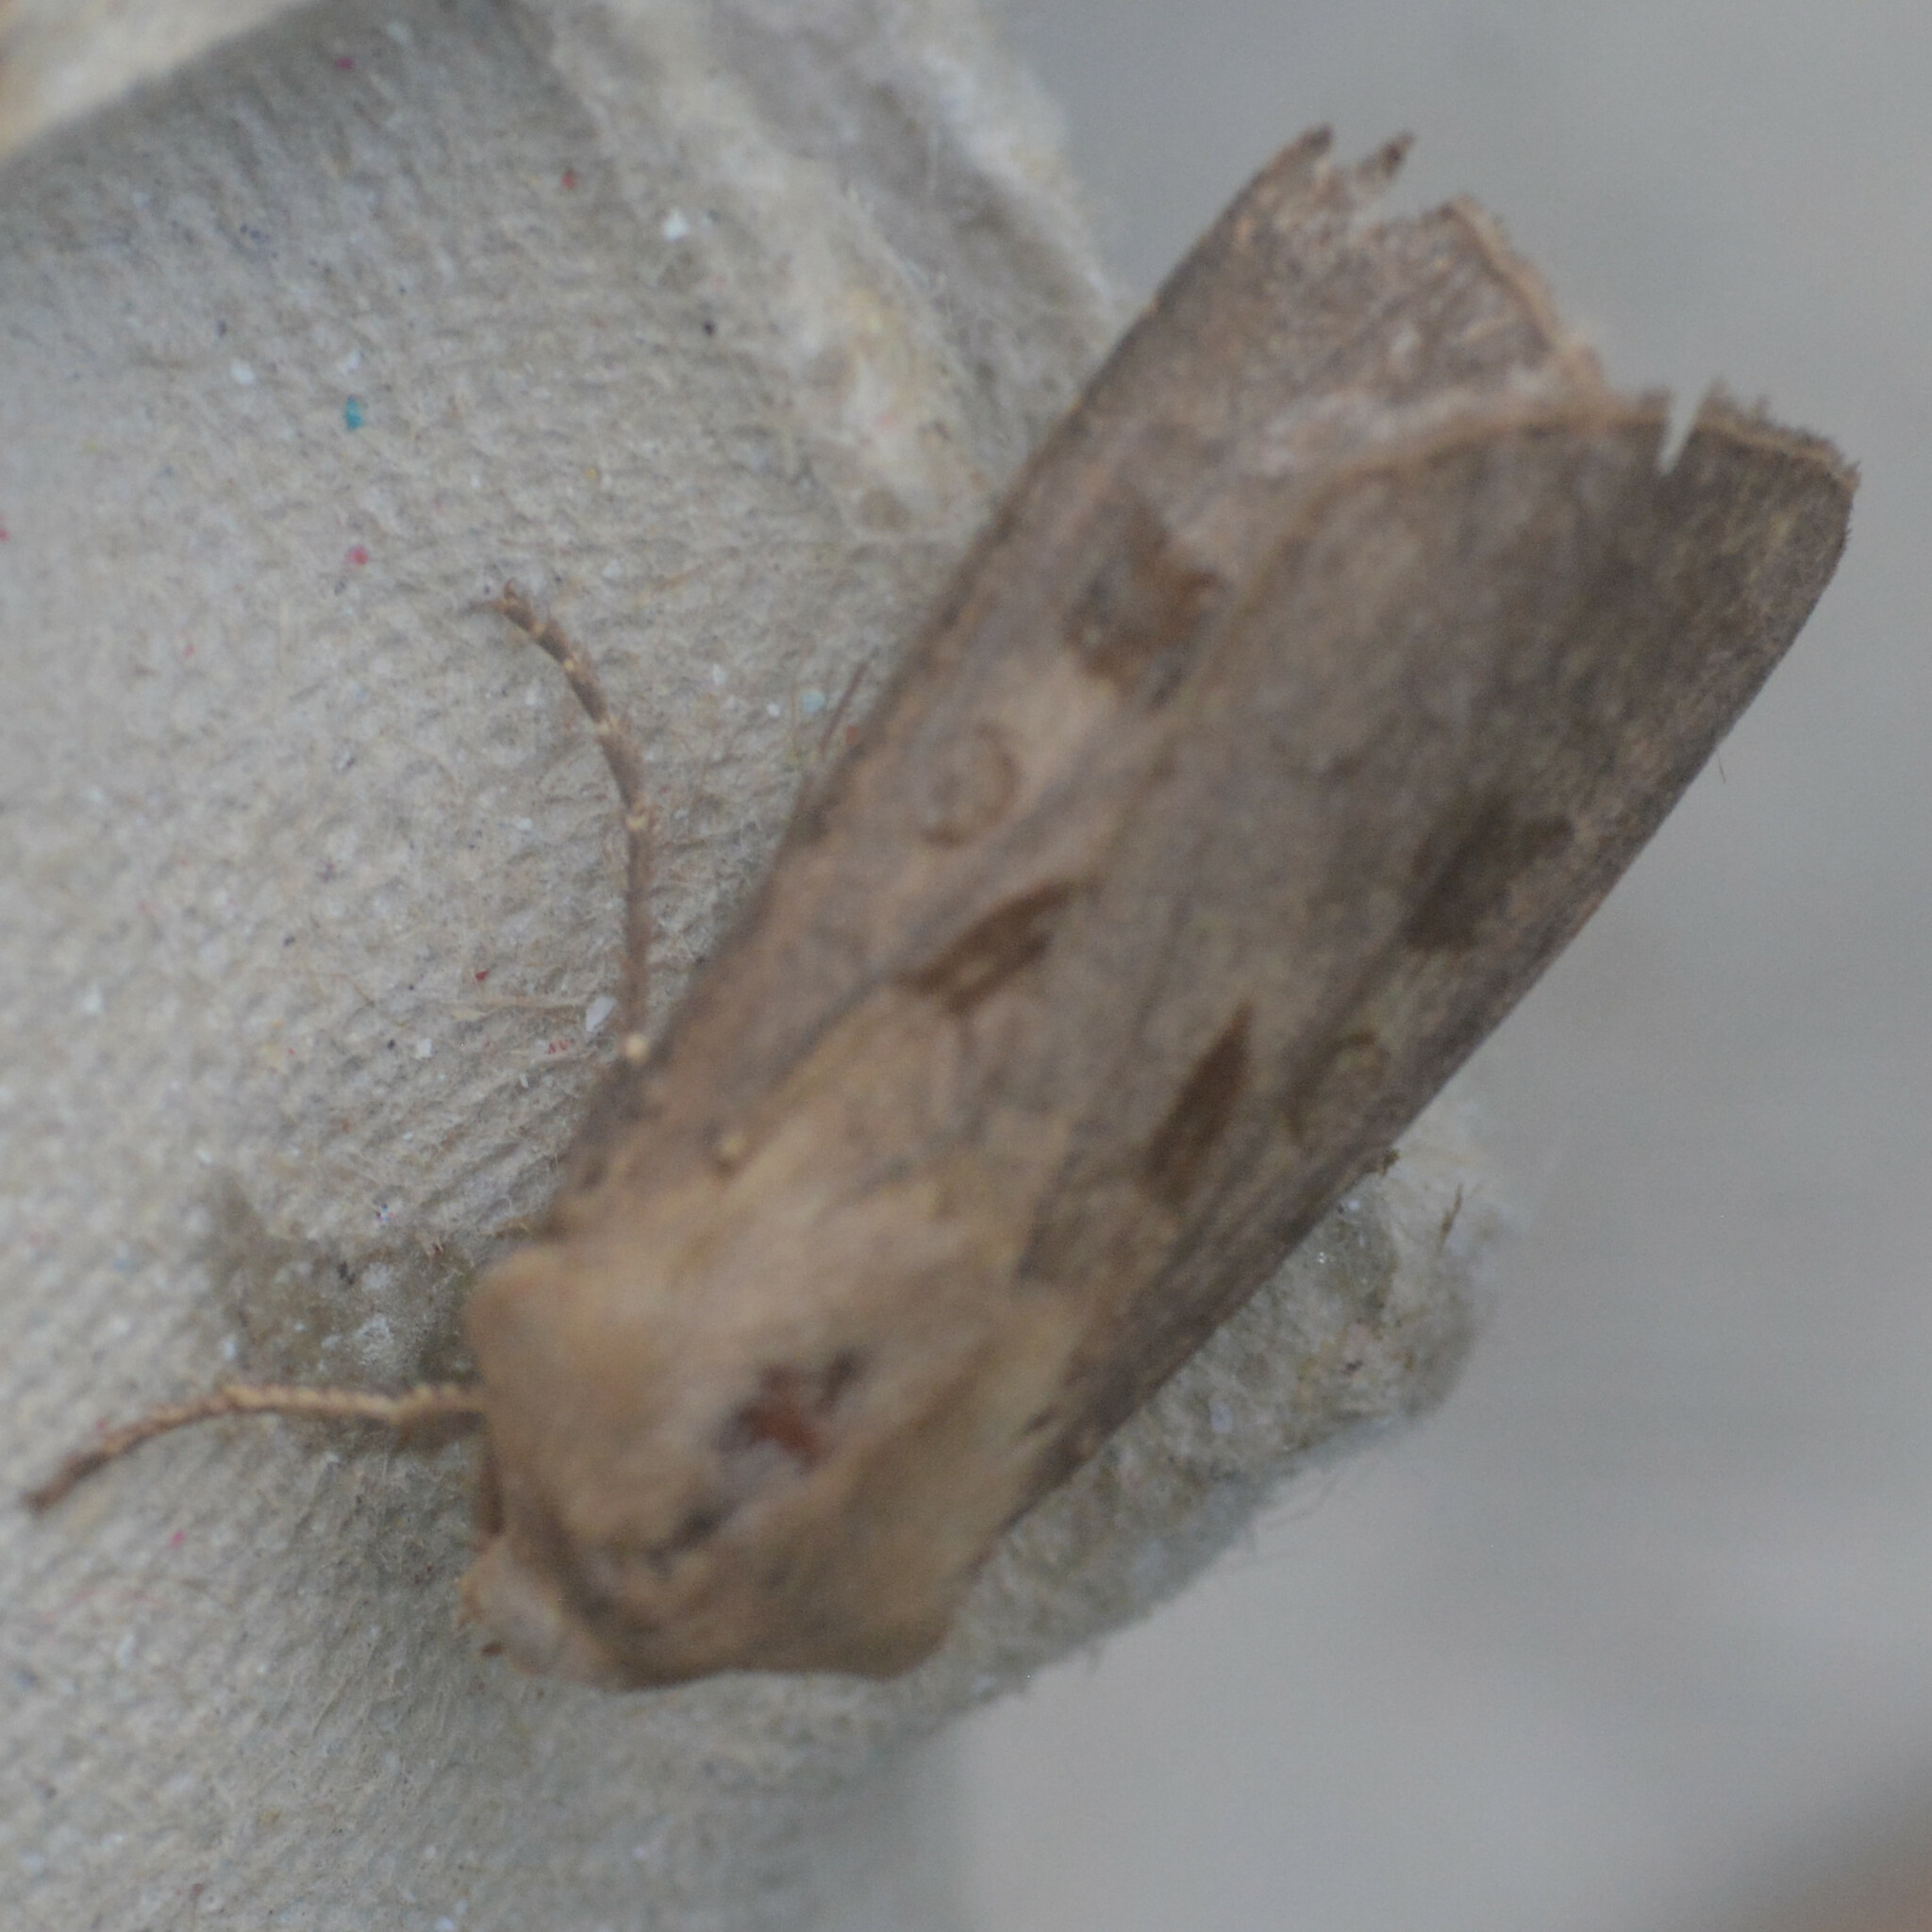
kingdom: Animalia
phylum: Arthropoda
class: Insecta
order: Lepidoptera
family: Noctuidae
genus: Agrotis
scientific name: Agrotis exclamationis
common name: Heart and dart
